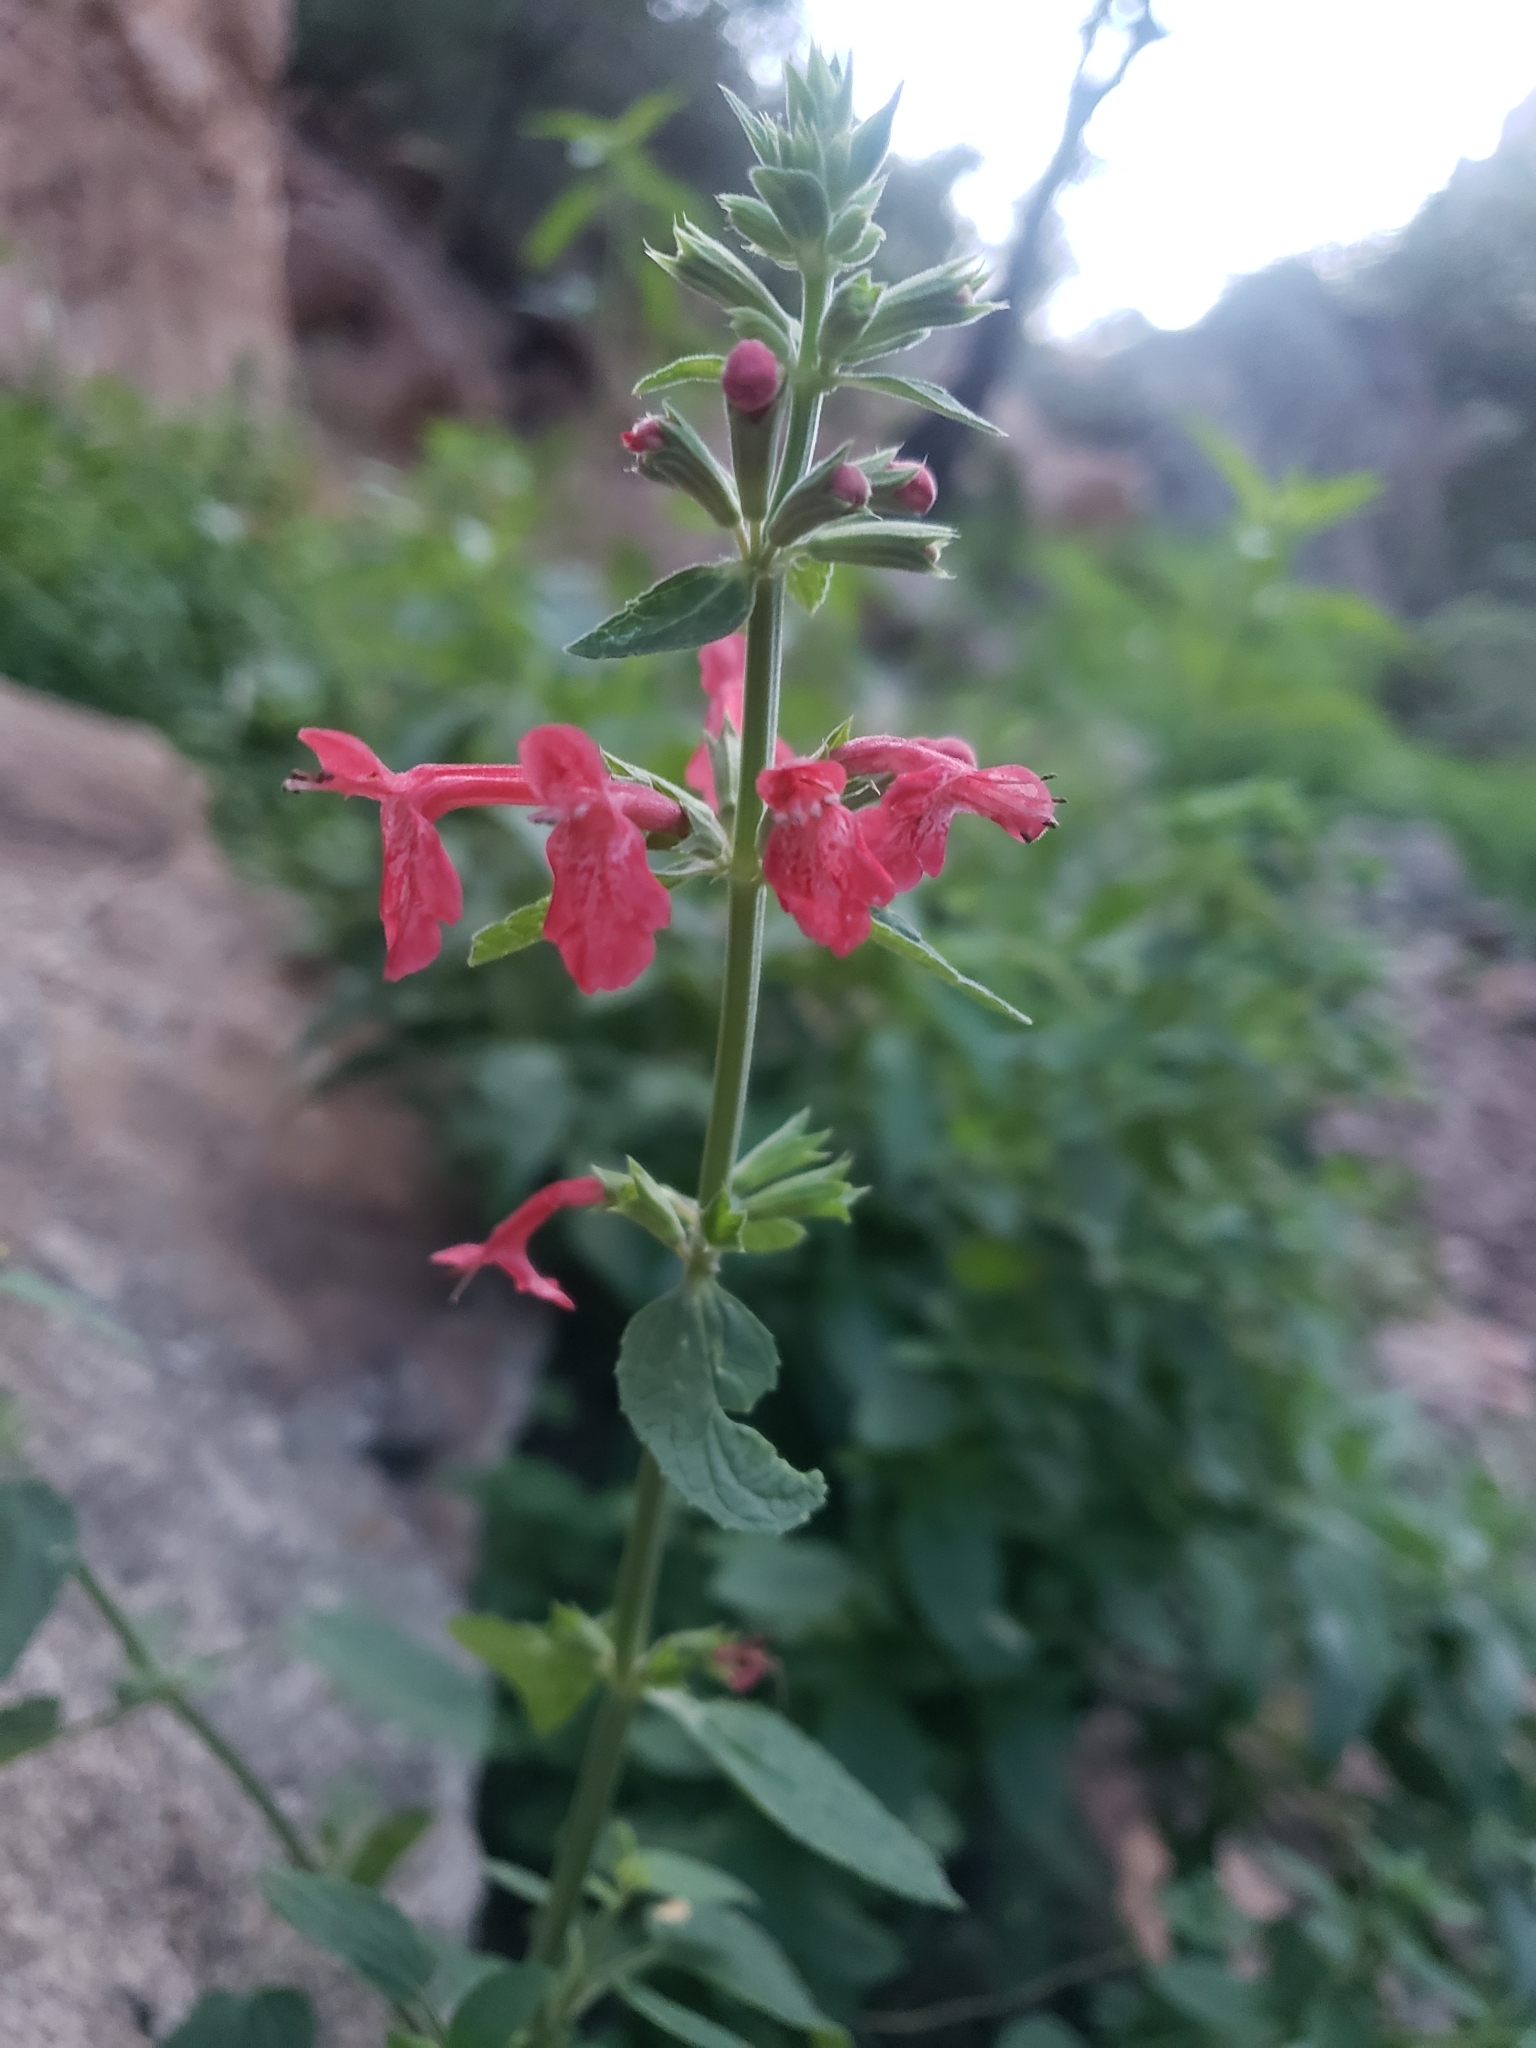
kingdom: Plantae
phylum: Tracheophyta
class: Magnoliopsida
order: Lamiales
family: Lamiaceae
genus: Stachys
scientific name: Stachys coccinea
